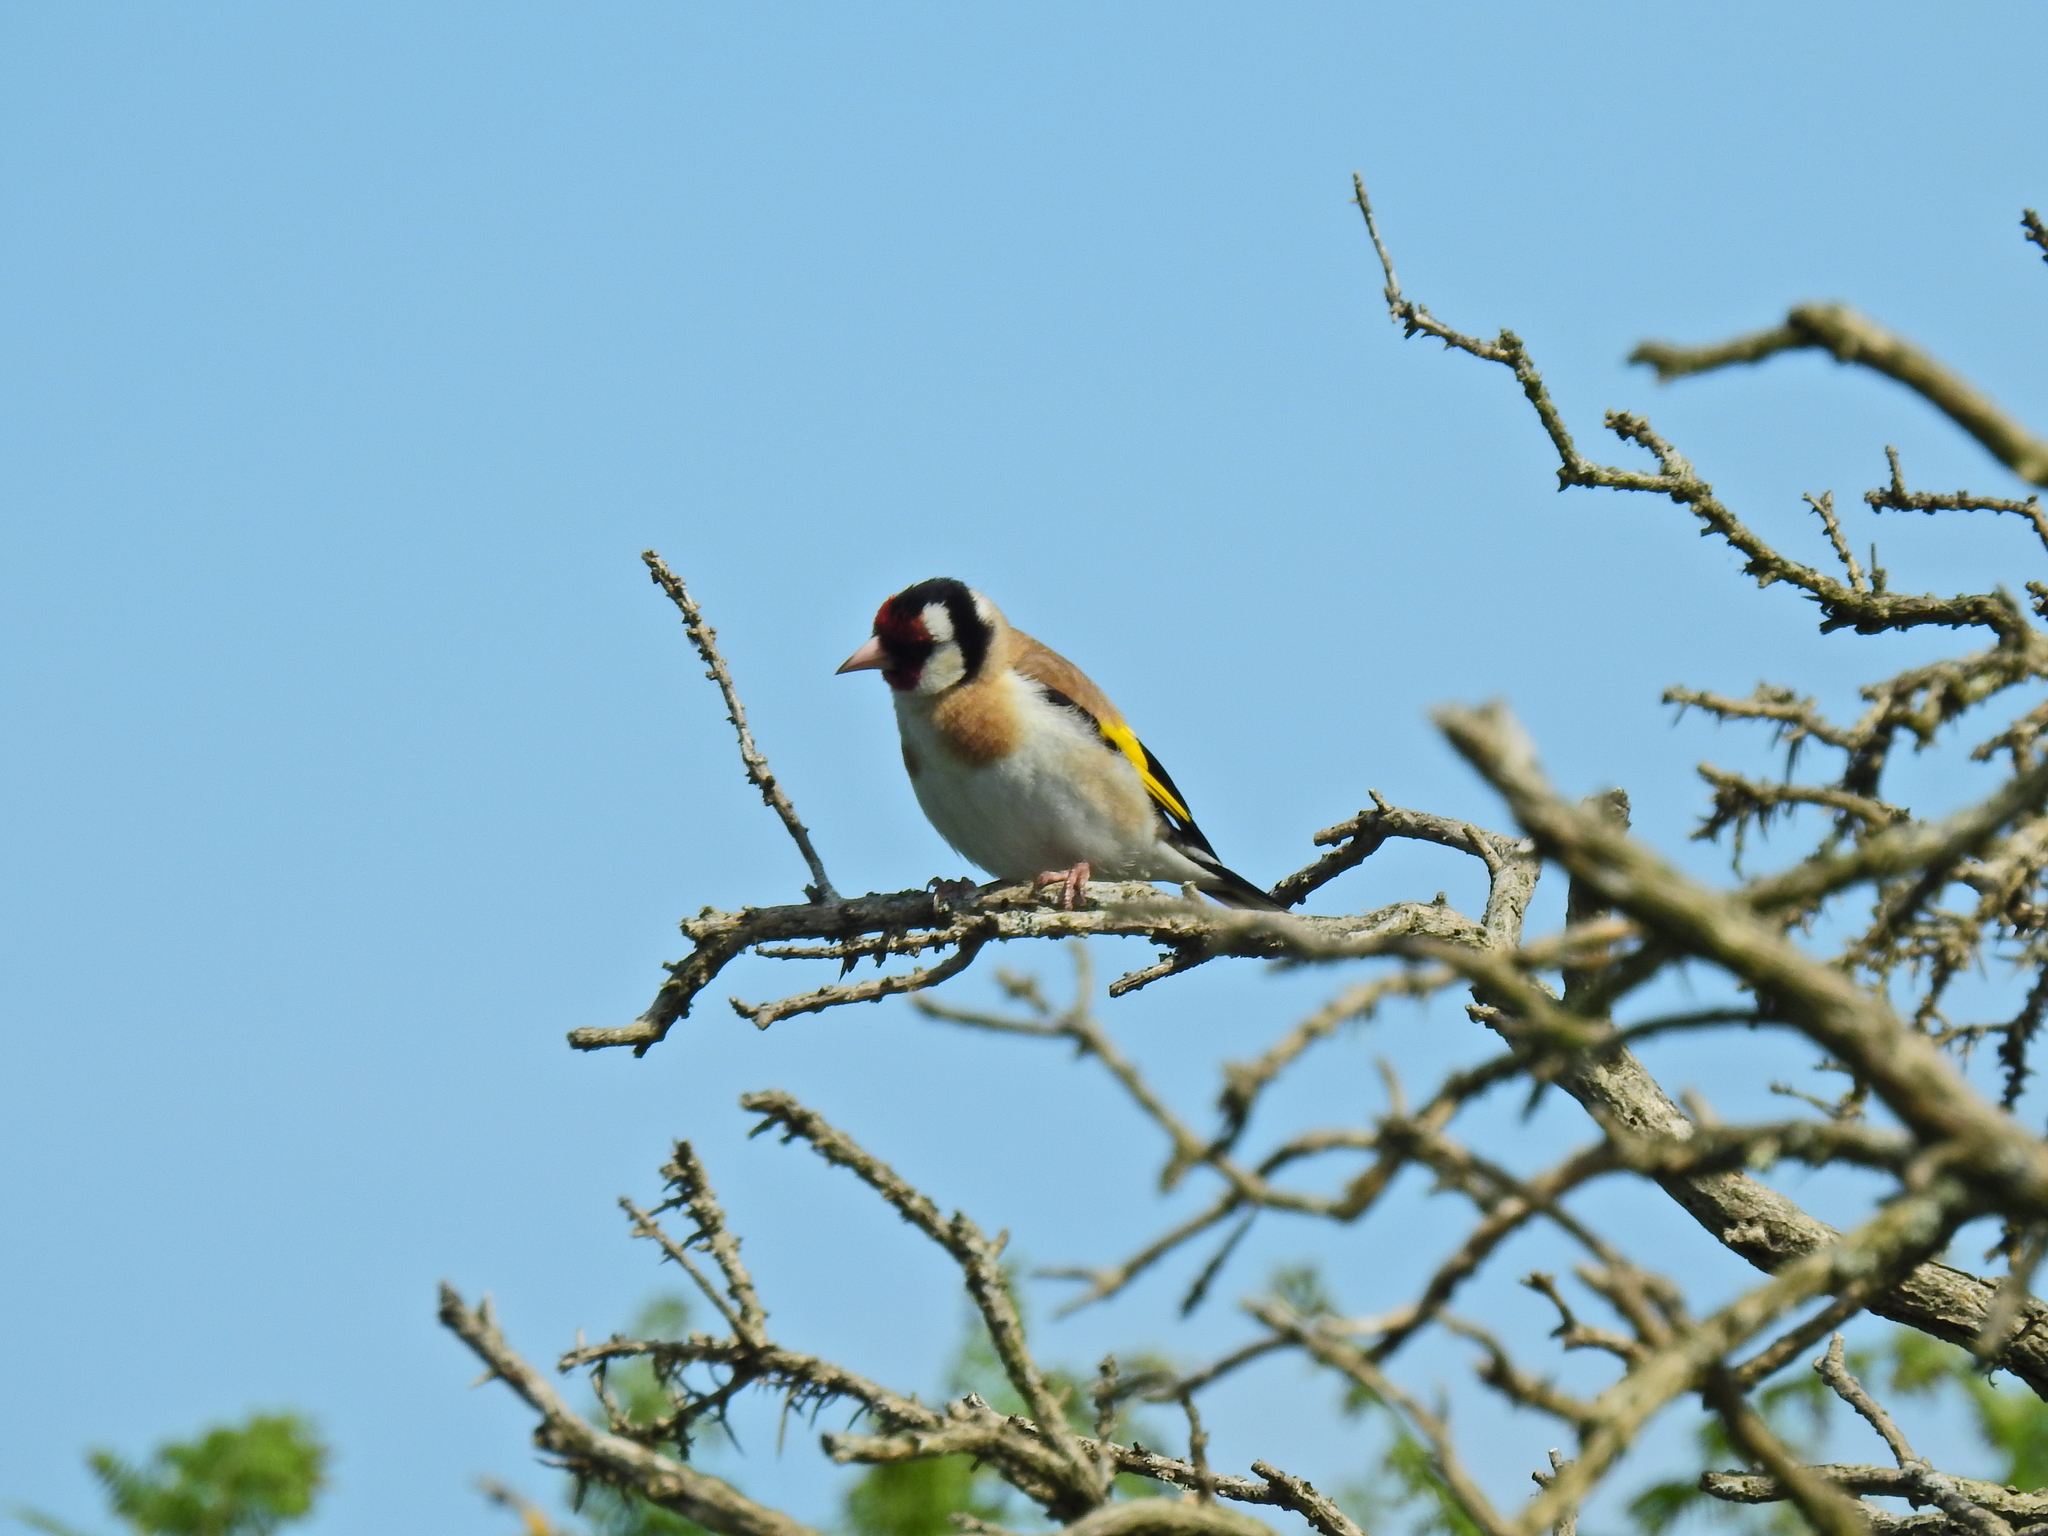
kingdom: Animalia
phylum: Chordata
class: Aves
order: Passeriformes
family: Fringillidae
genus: Carduelis
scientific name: Carduelis carduelis
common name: European goldfinch
